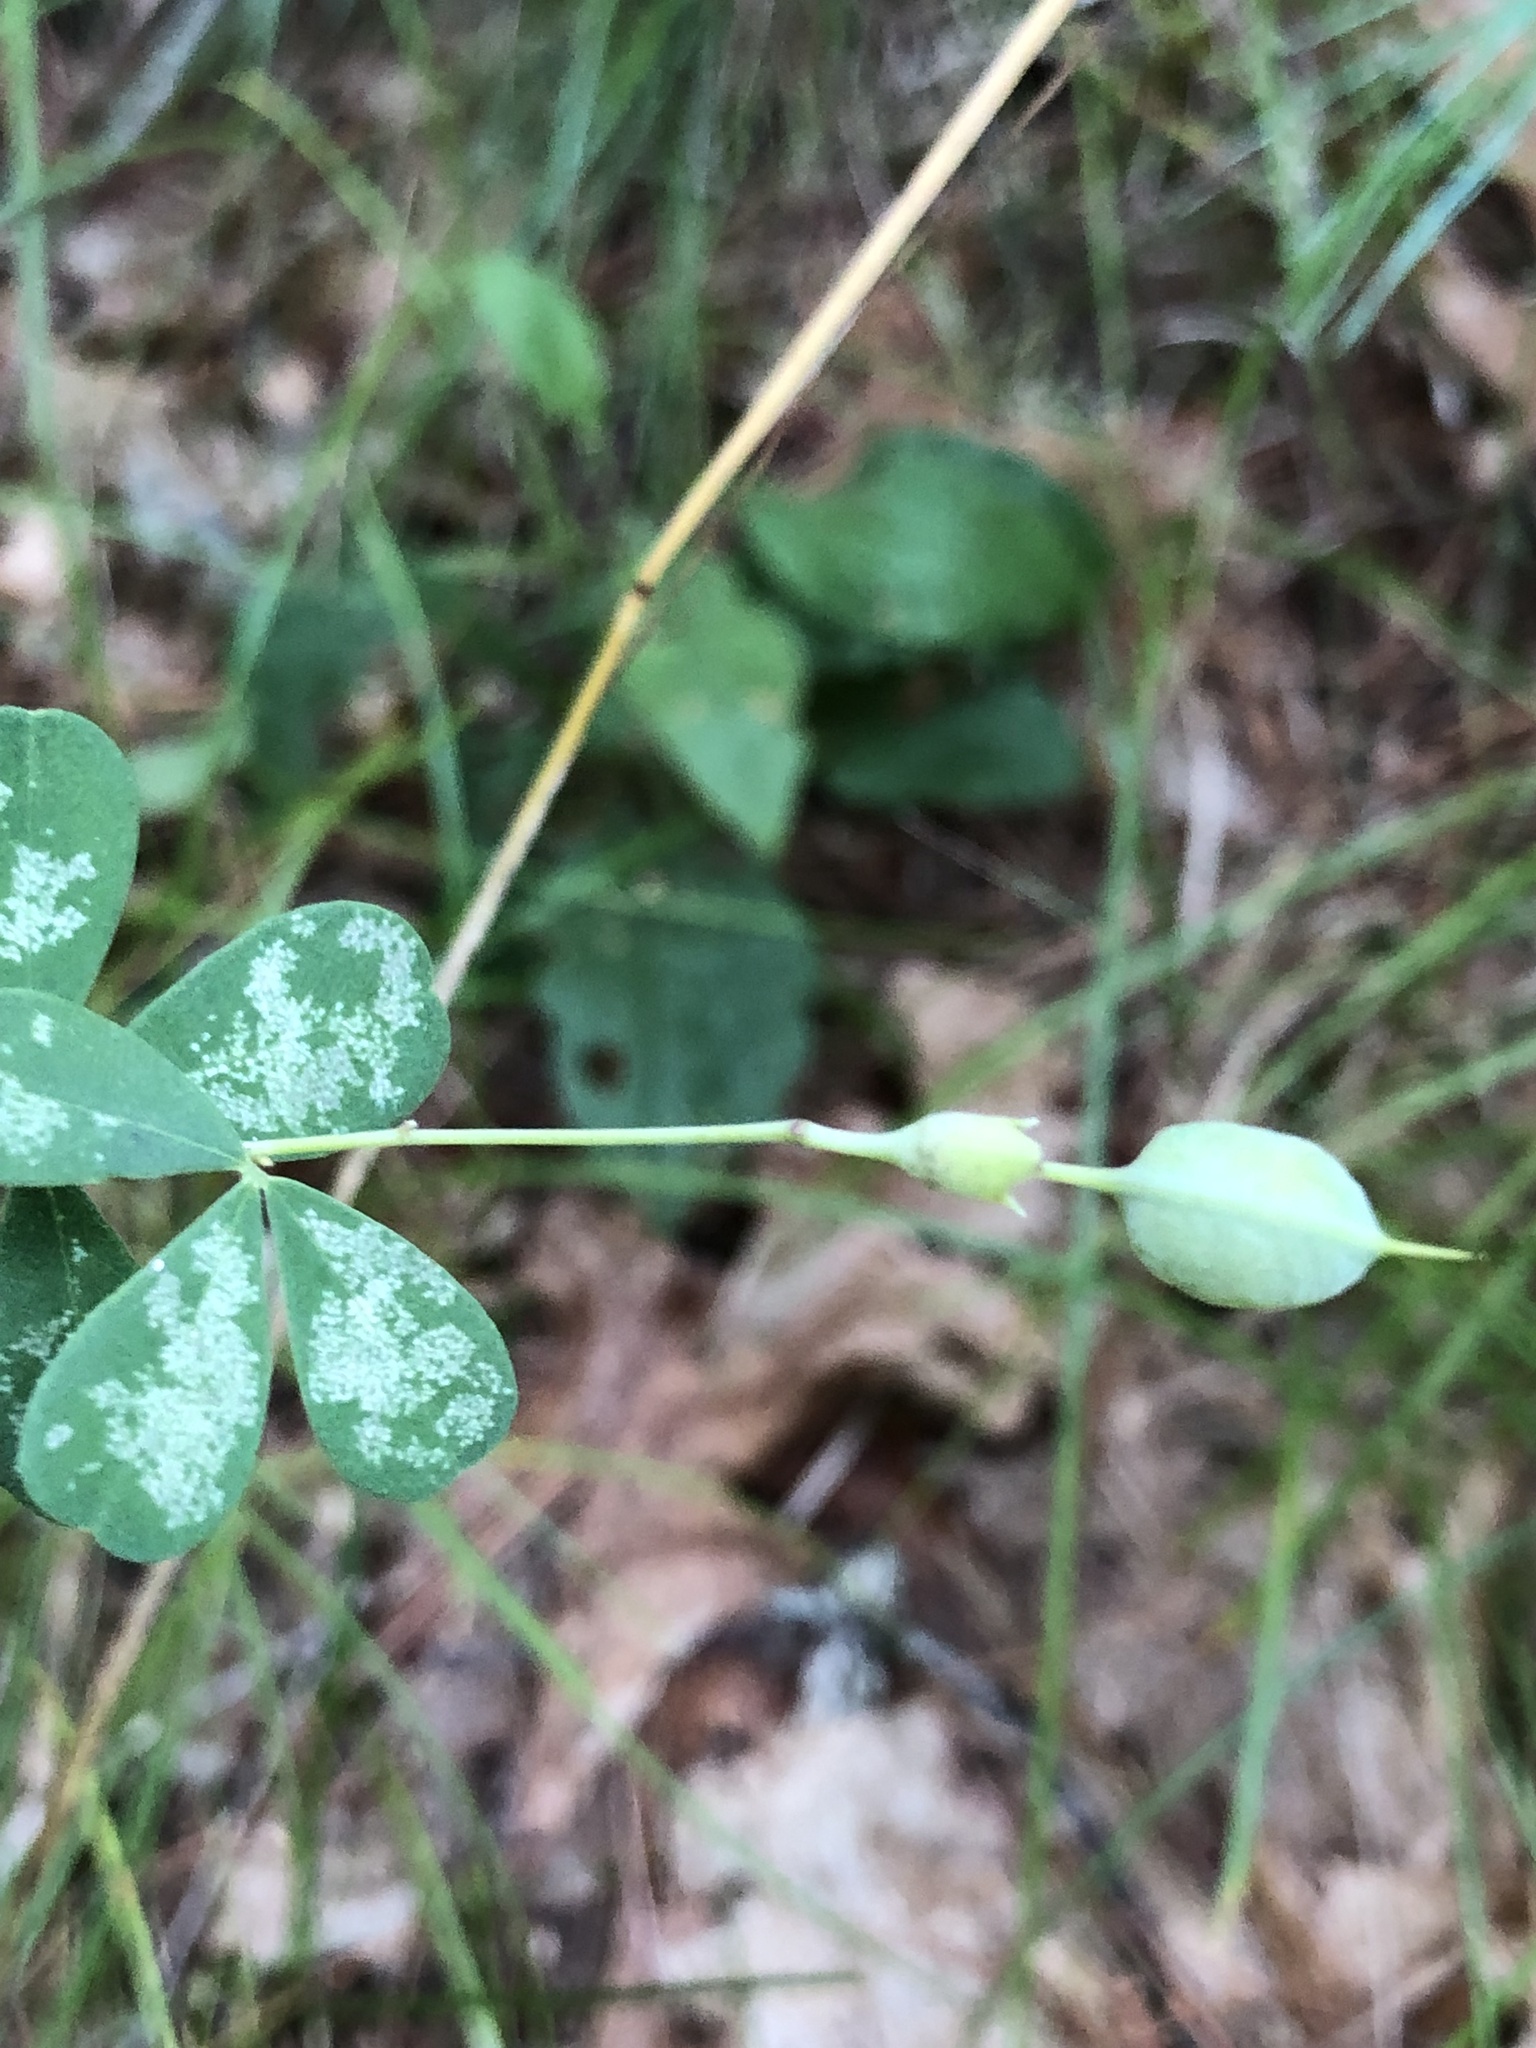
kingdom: Plantae
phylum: Tracheophyta
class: Magnoliopsida
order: Fabales
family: Fabaceae
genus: Baptisia
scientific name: Baptisia tinctoria
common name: Wild indigo
